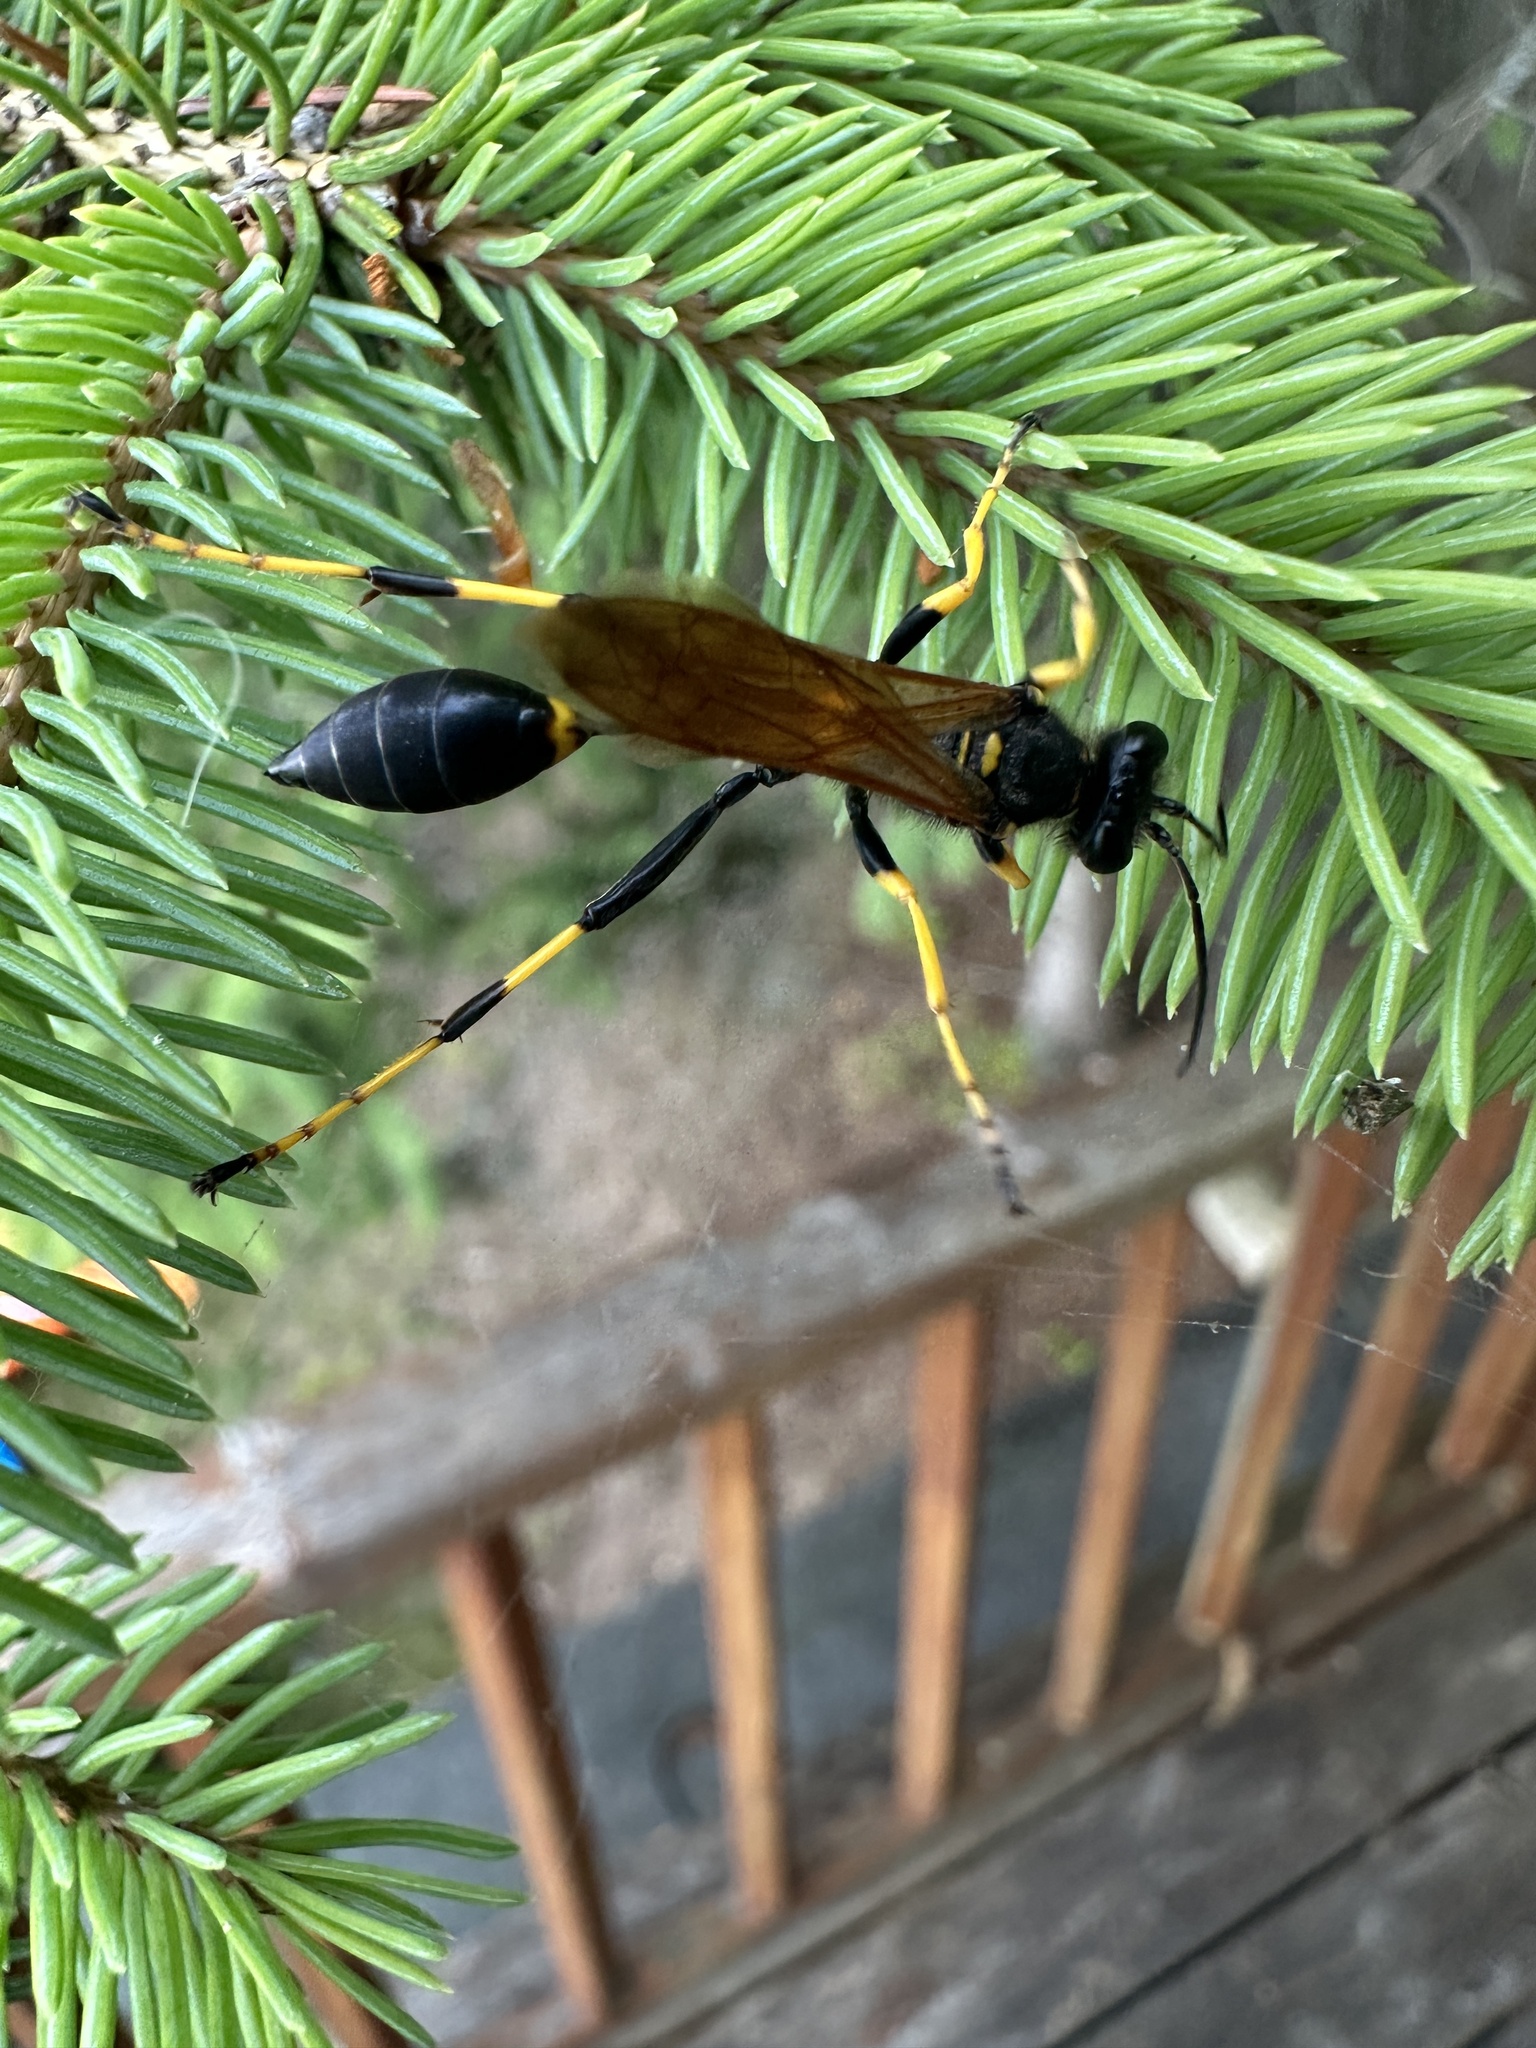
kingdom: Animalia
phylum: Arthropoda
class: Insecta
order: Hymenoptera
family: Sphecidae
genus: Sceliphron
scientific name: Sceliphron caementarium
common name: Mud dauber
